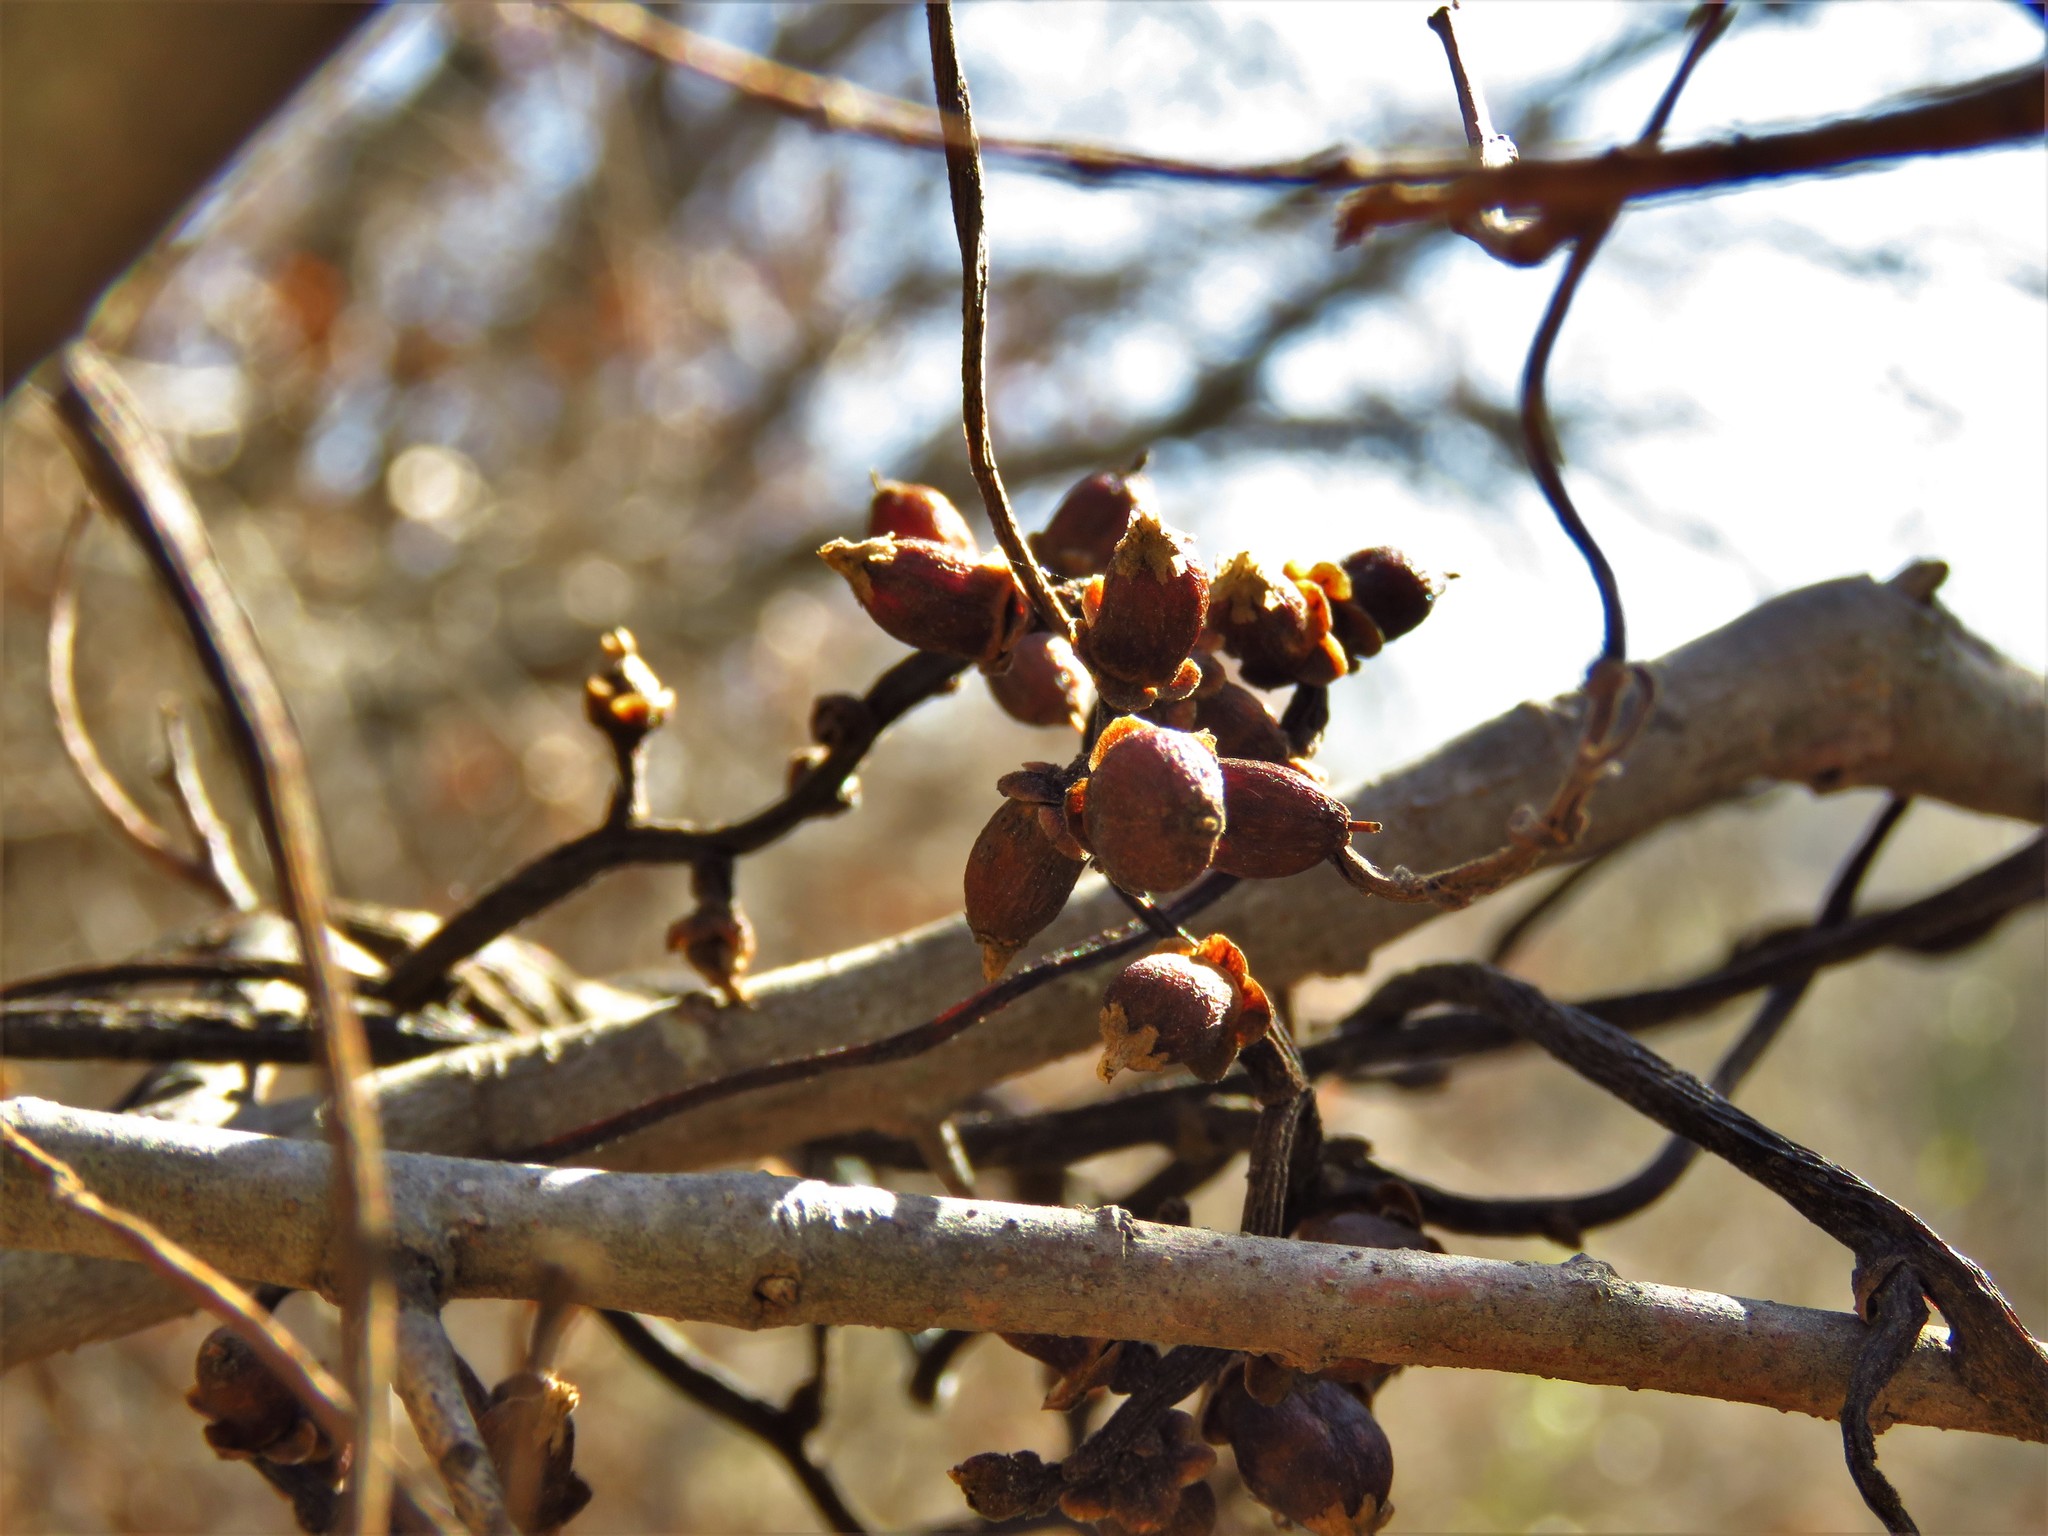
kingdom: Plantae
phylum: Tracheophyta
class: Magnoliopsida
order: Solanales
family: Convolvulaceae
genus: Cuscuta
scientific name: Cuscuta exaltata
